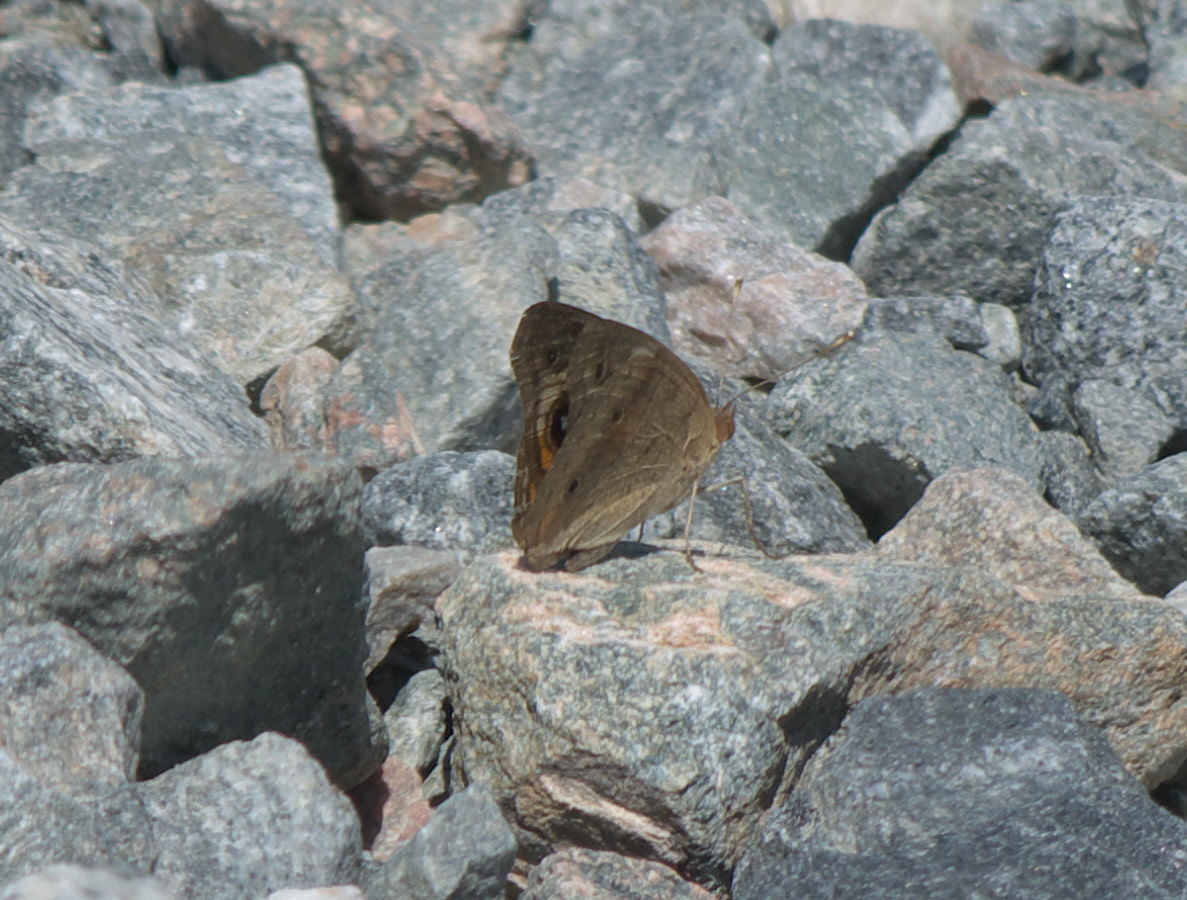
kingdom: Animalia
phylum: Arthropoda
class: Insecta
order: Lepidoptera
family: Nymphalidae
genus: Junonia
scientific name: Junonia coenia
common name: Common buckeye
